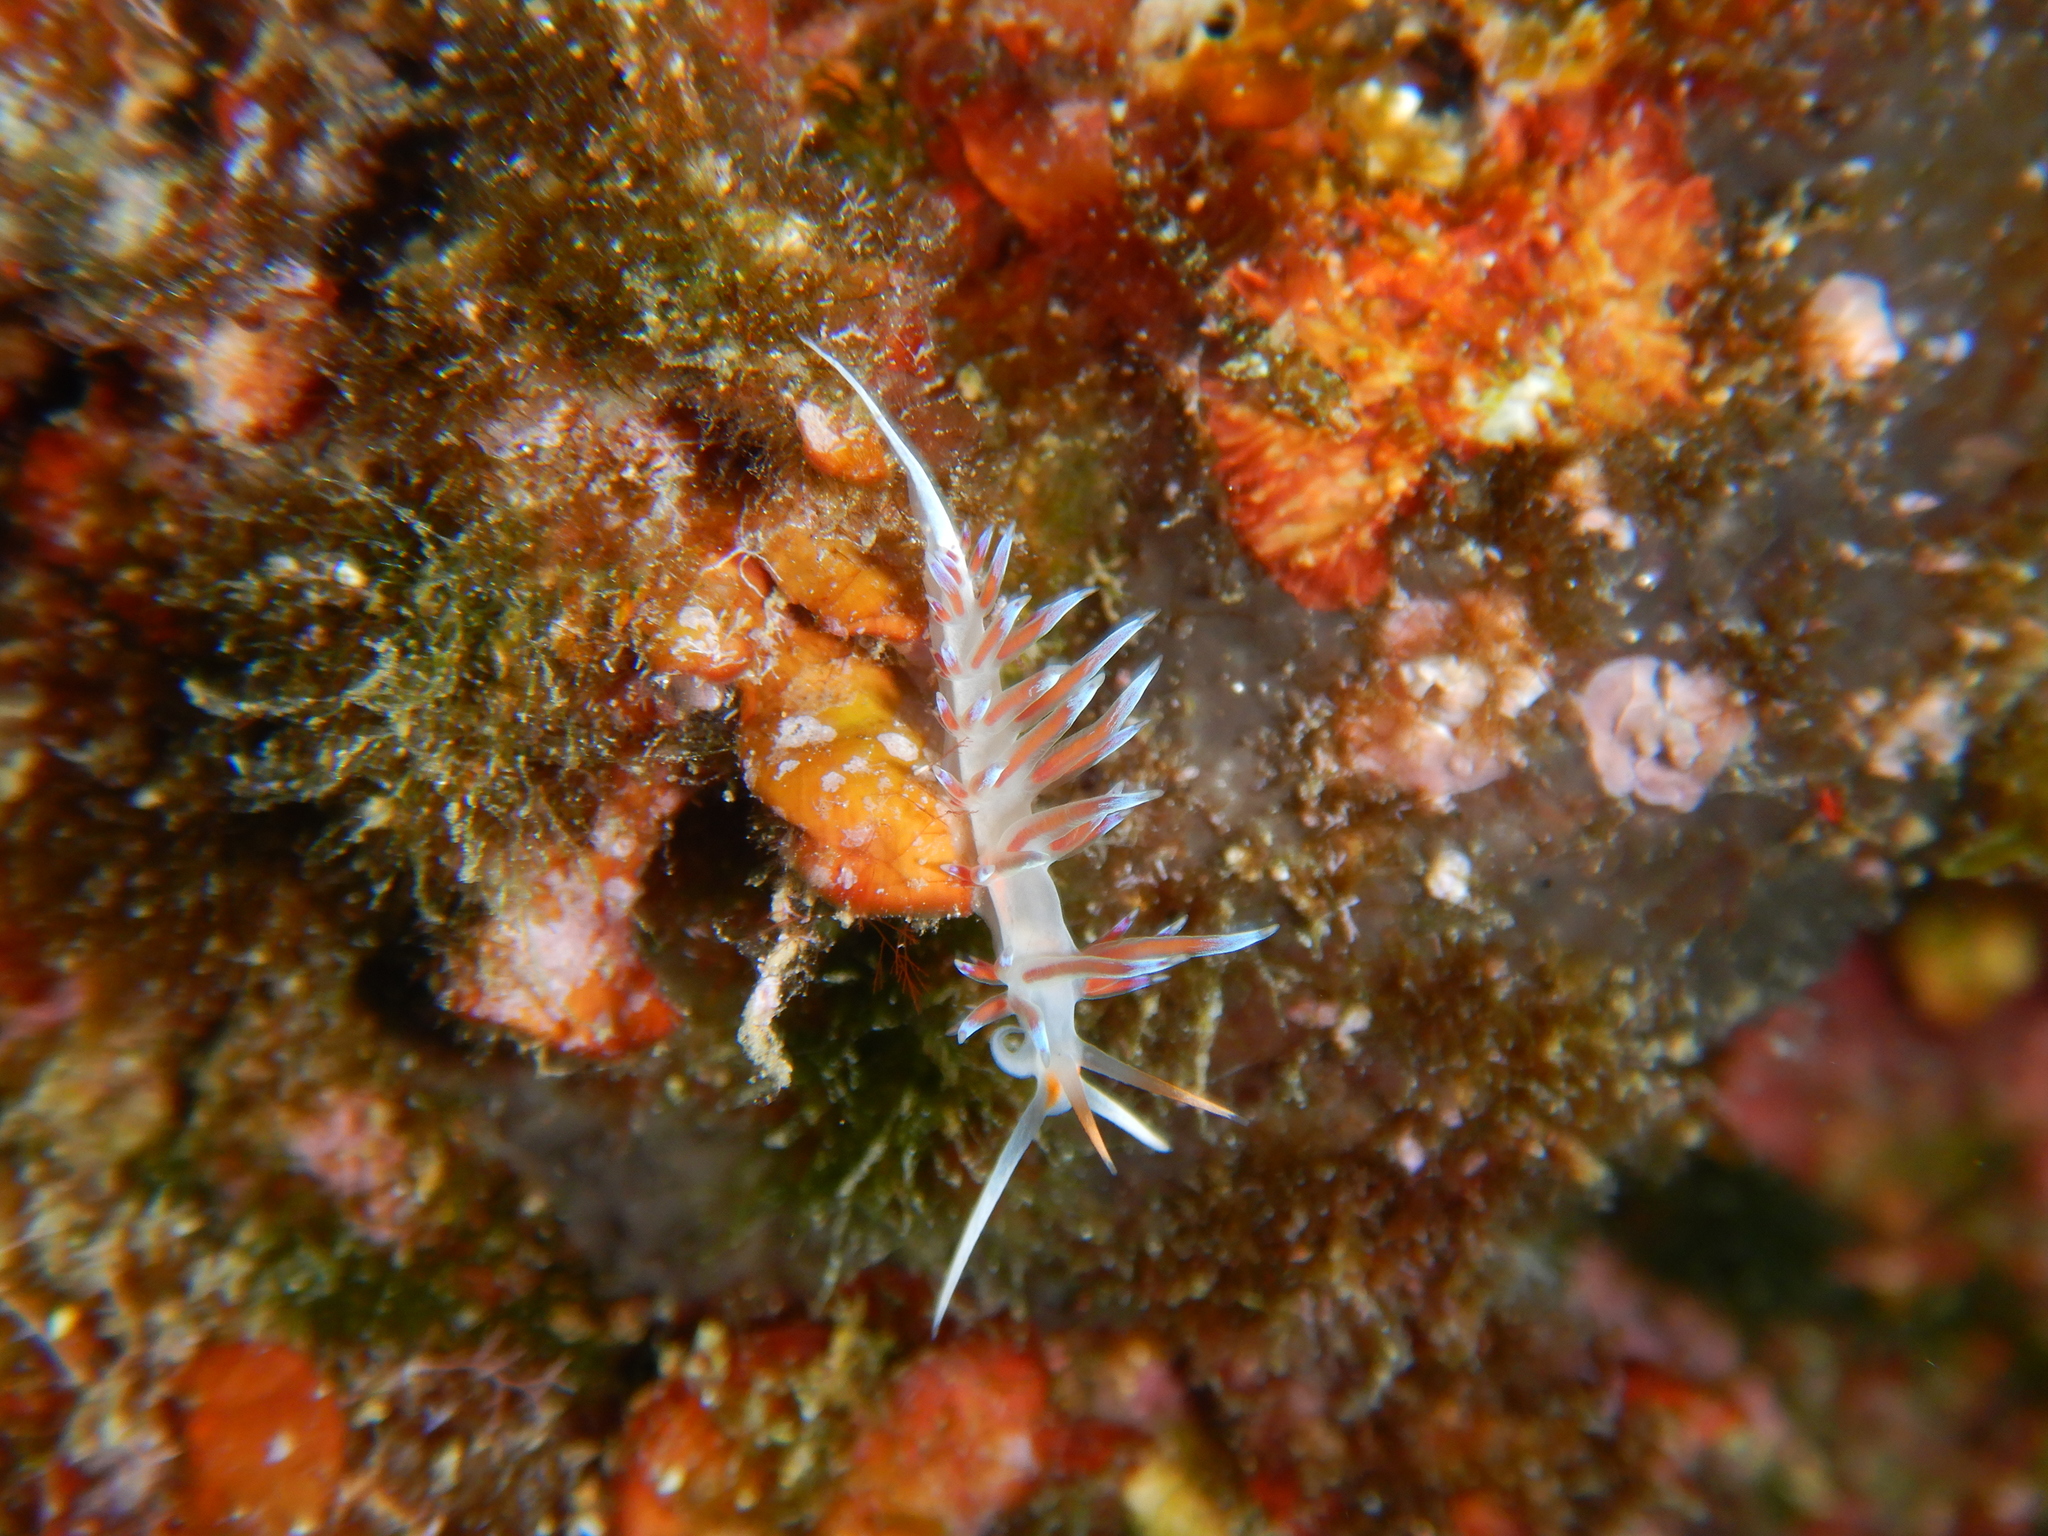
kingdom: Animalia
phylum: Mollusca
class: Gastropoda
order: Nudibranchia
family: Facelinidae
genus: Cratena
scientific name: Cratena peregrina
